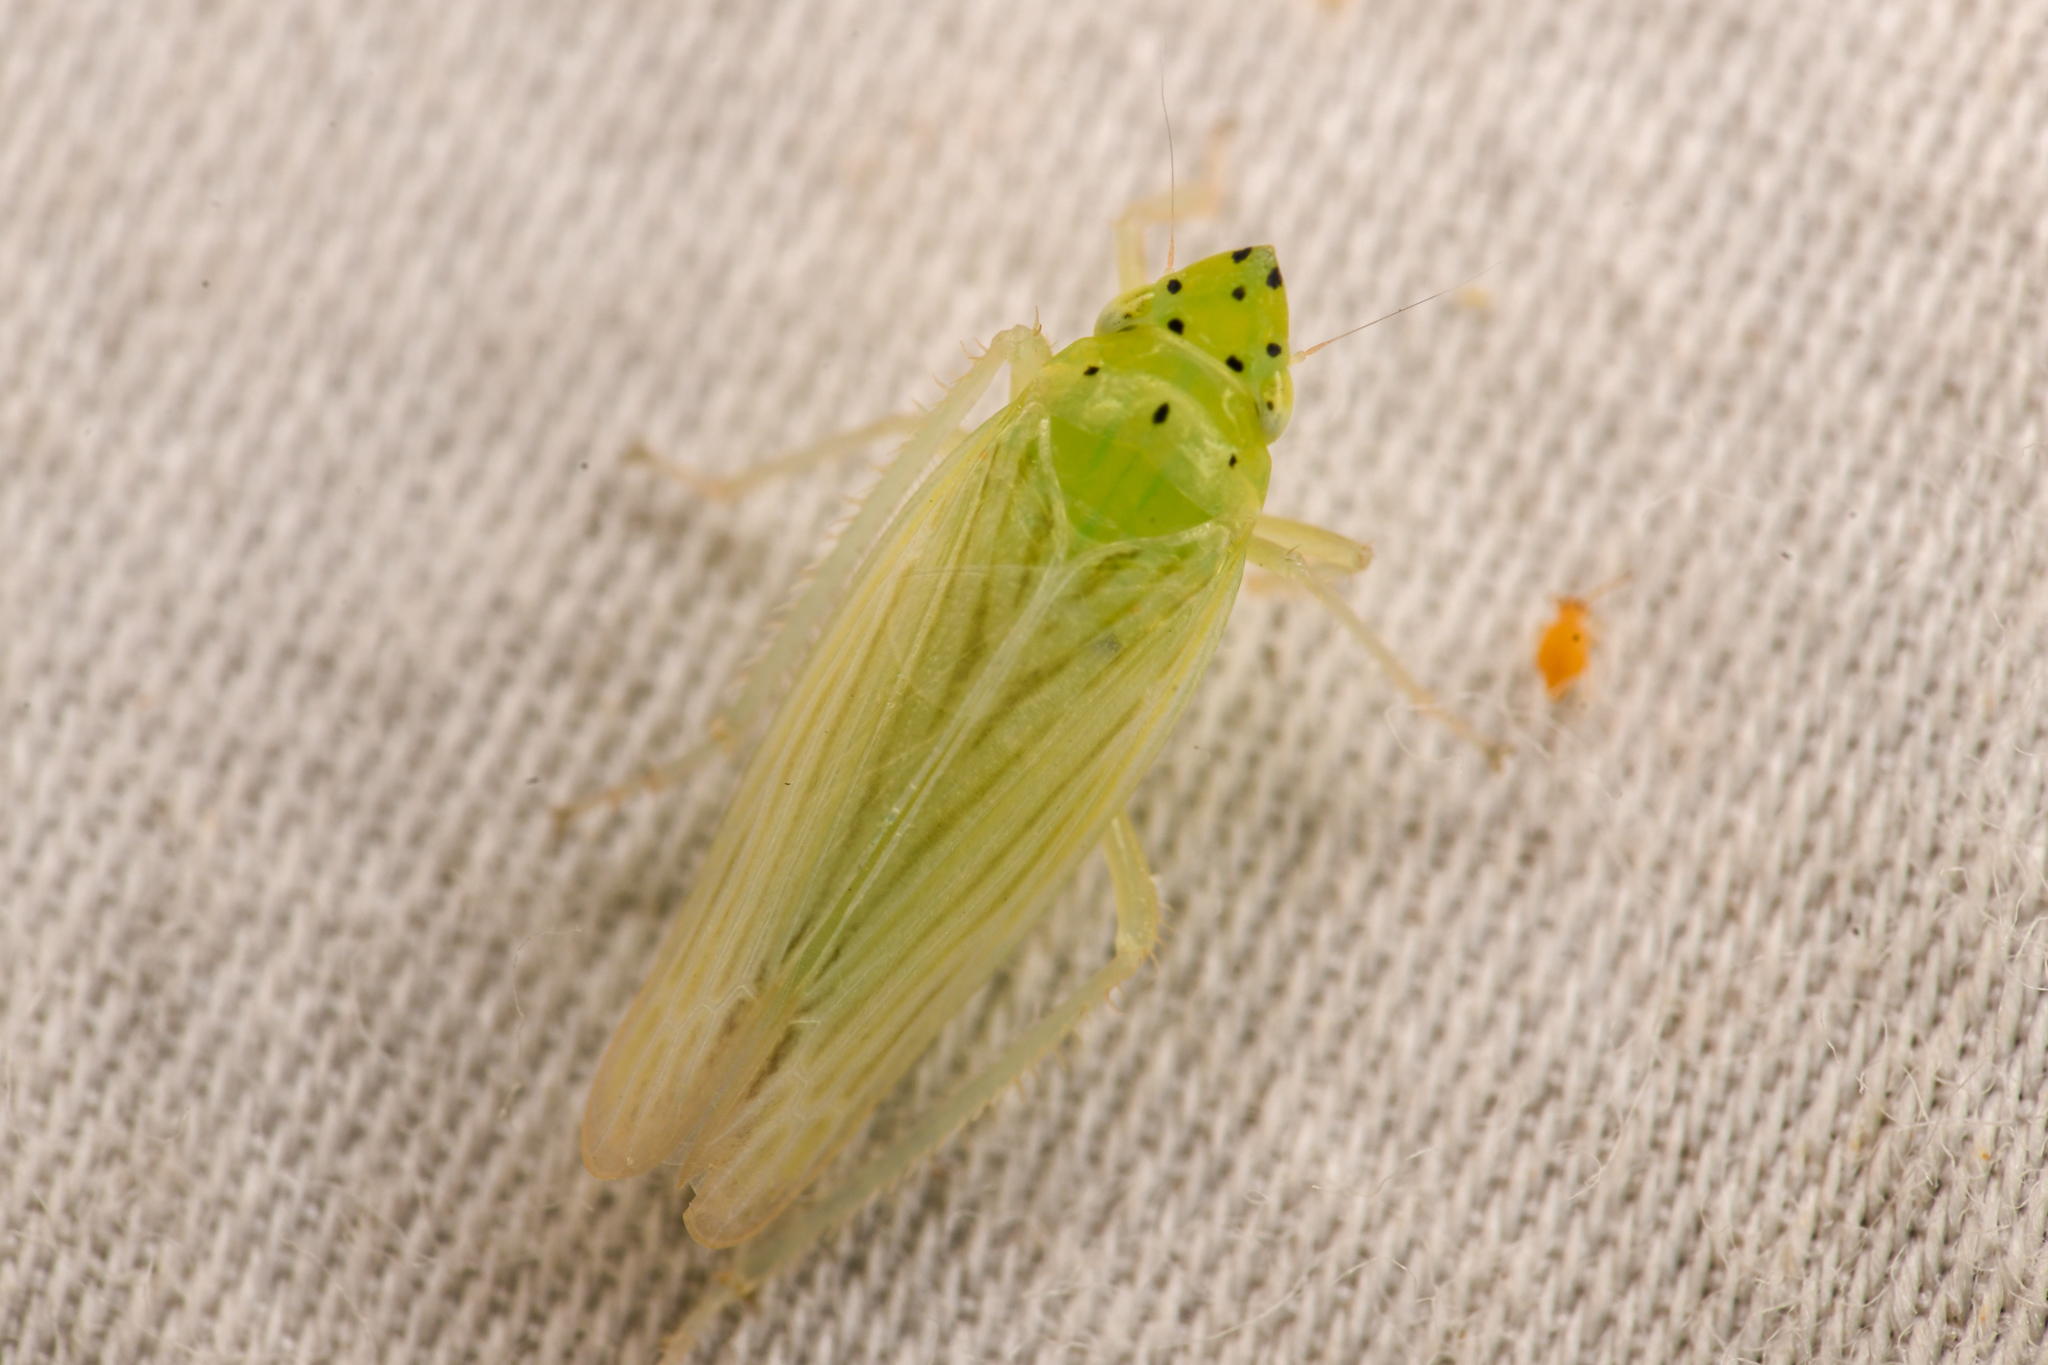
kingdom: Animalia
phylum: Arthropoda
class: Insecta
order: Hemiptera
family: Cicadellidae
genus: Pagaronia
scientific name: Pagaronia tredecimpunctata
